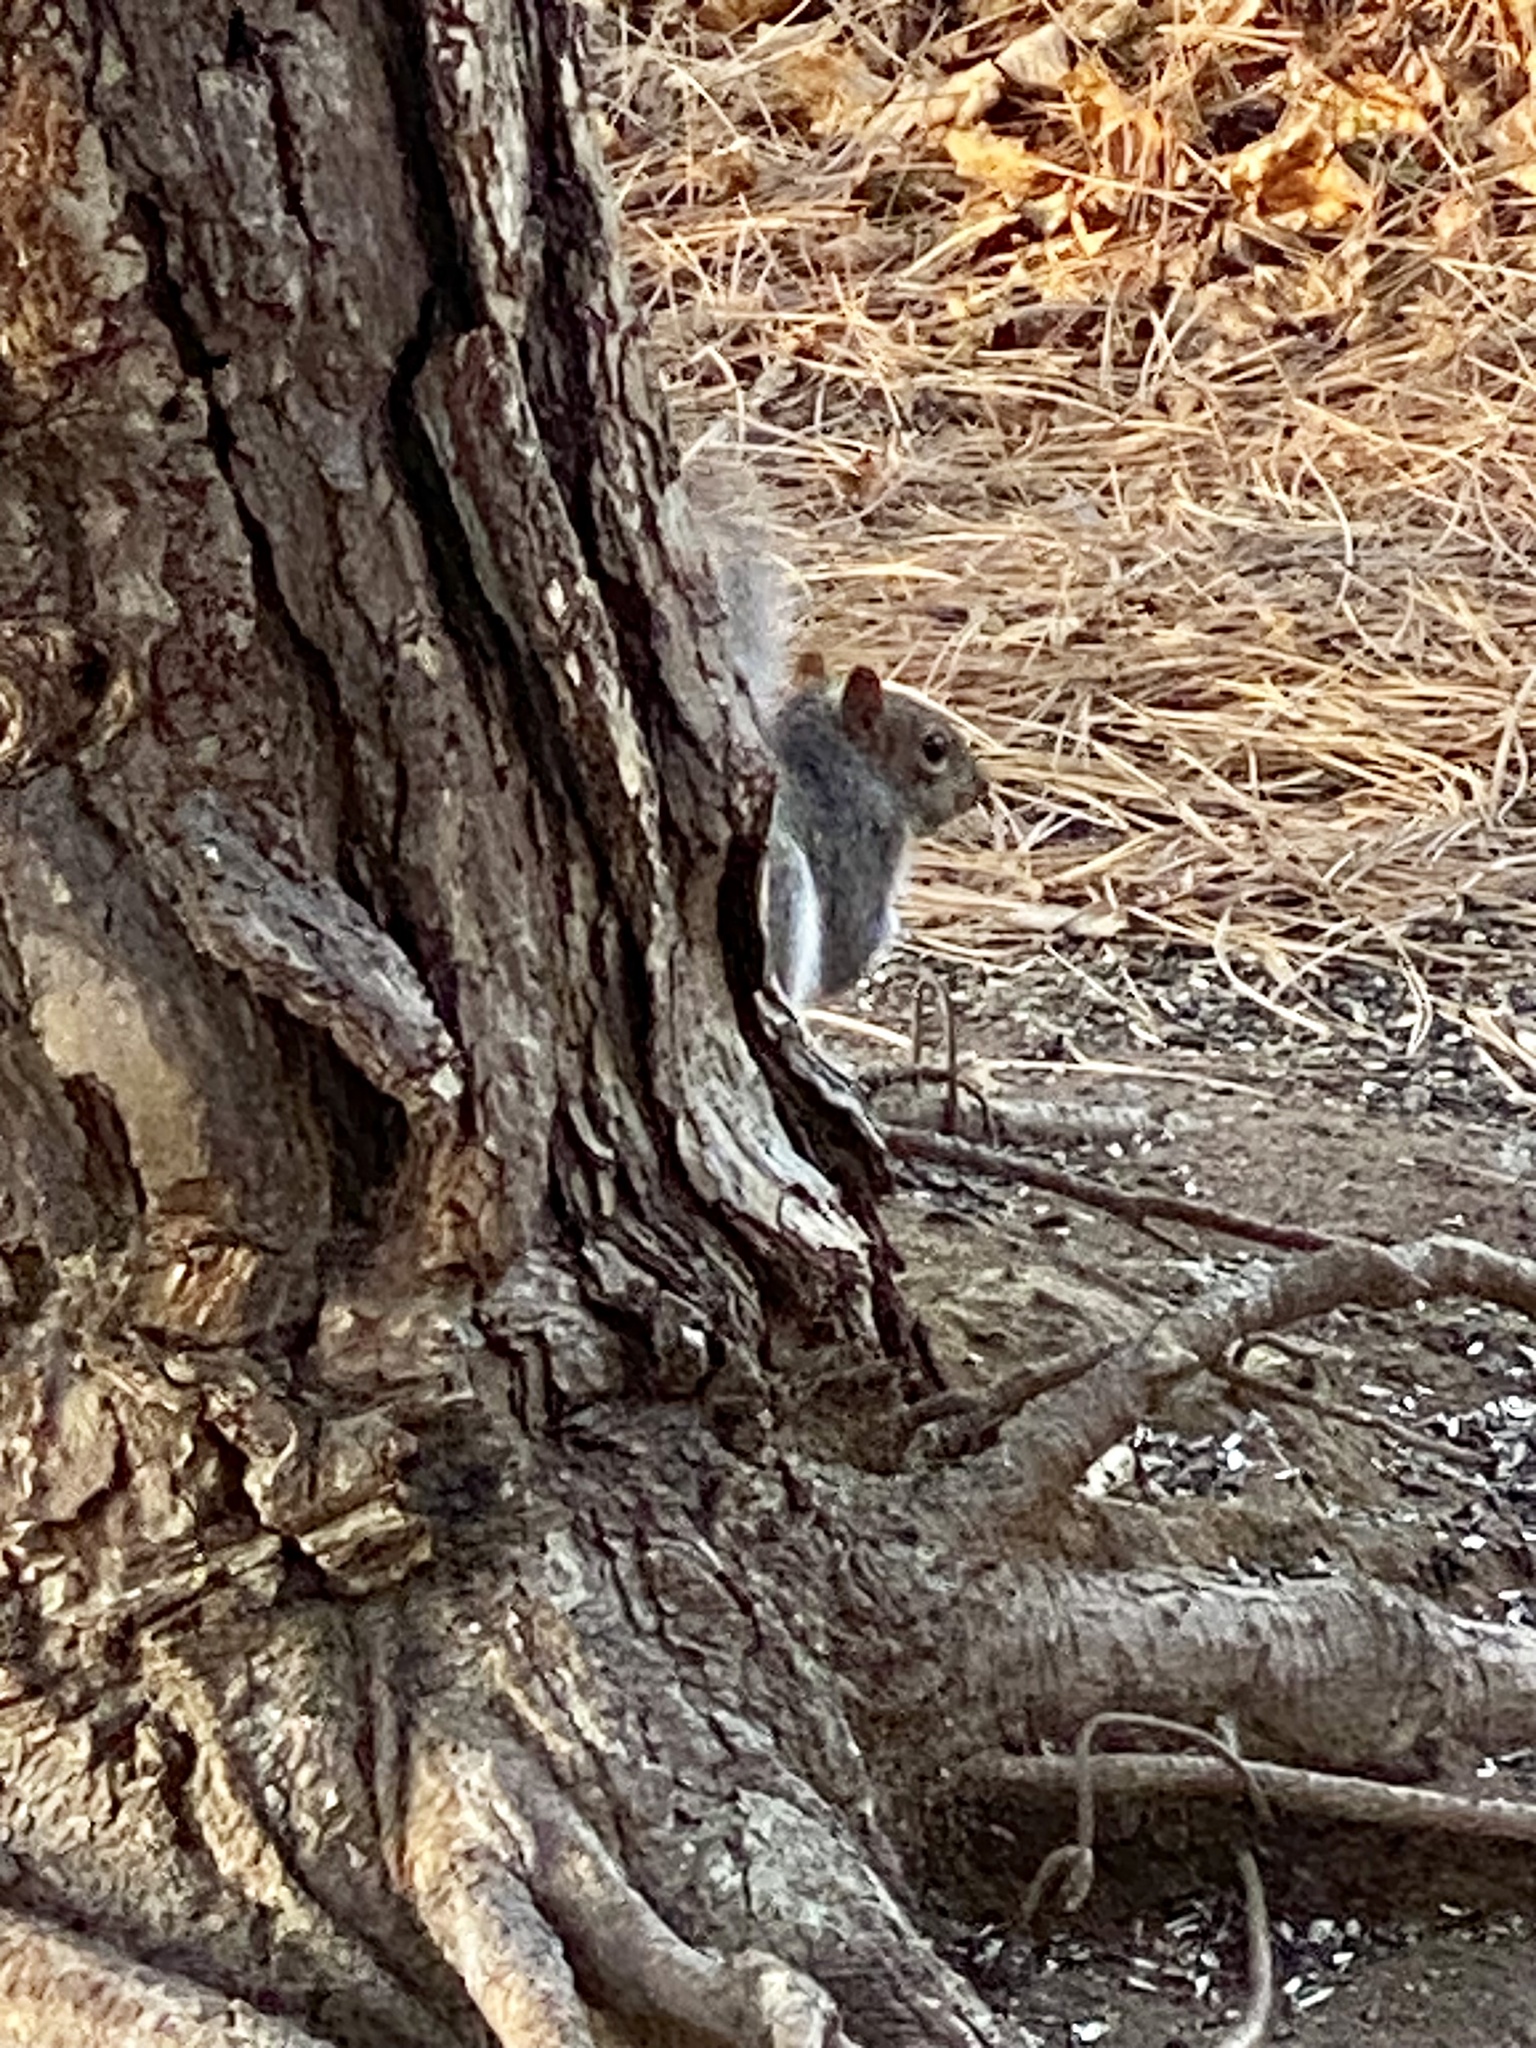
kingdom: Animalia
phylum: Chordata
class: Mammalia
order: Rodentia
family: Sciuridae
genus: Sciurus
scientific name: Sciurus carolinensis
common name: Eastern gray squirrel
